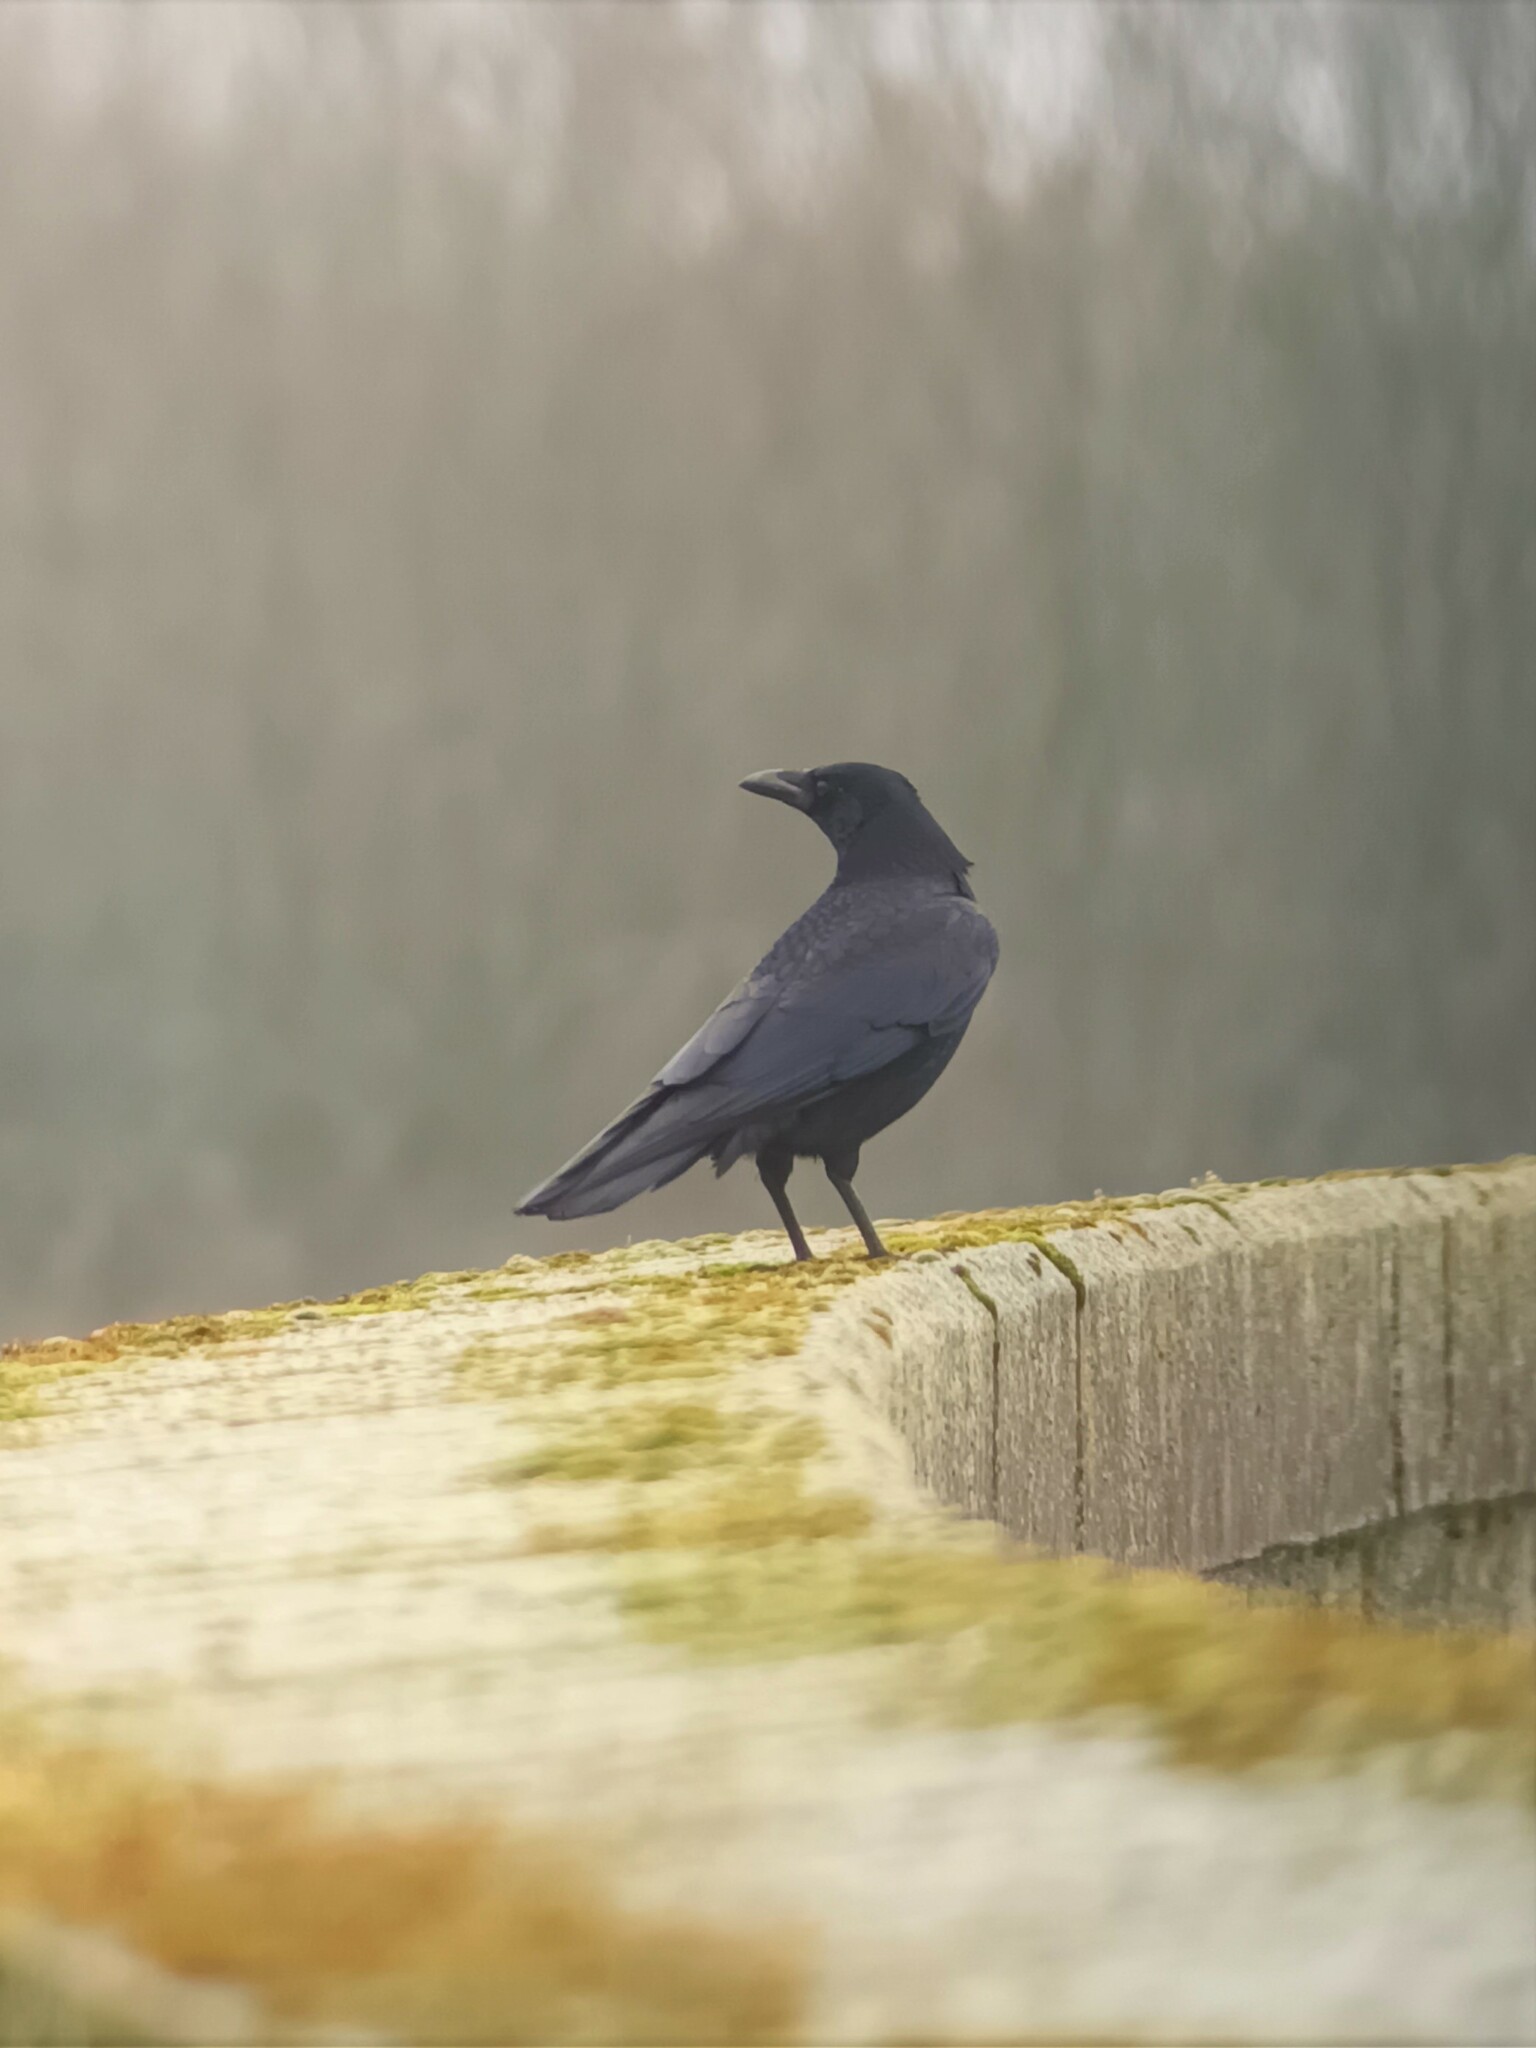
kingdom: Animalia
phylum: Chordata
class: Aves
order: Passeriformes
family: Corvidae
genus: Corvus
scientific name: Corvus corone
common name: Carrion crow
